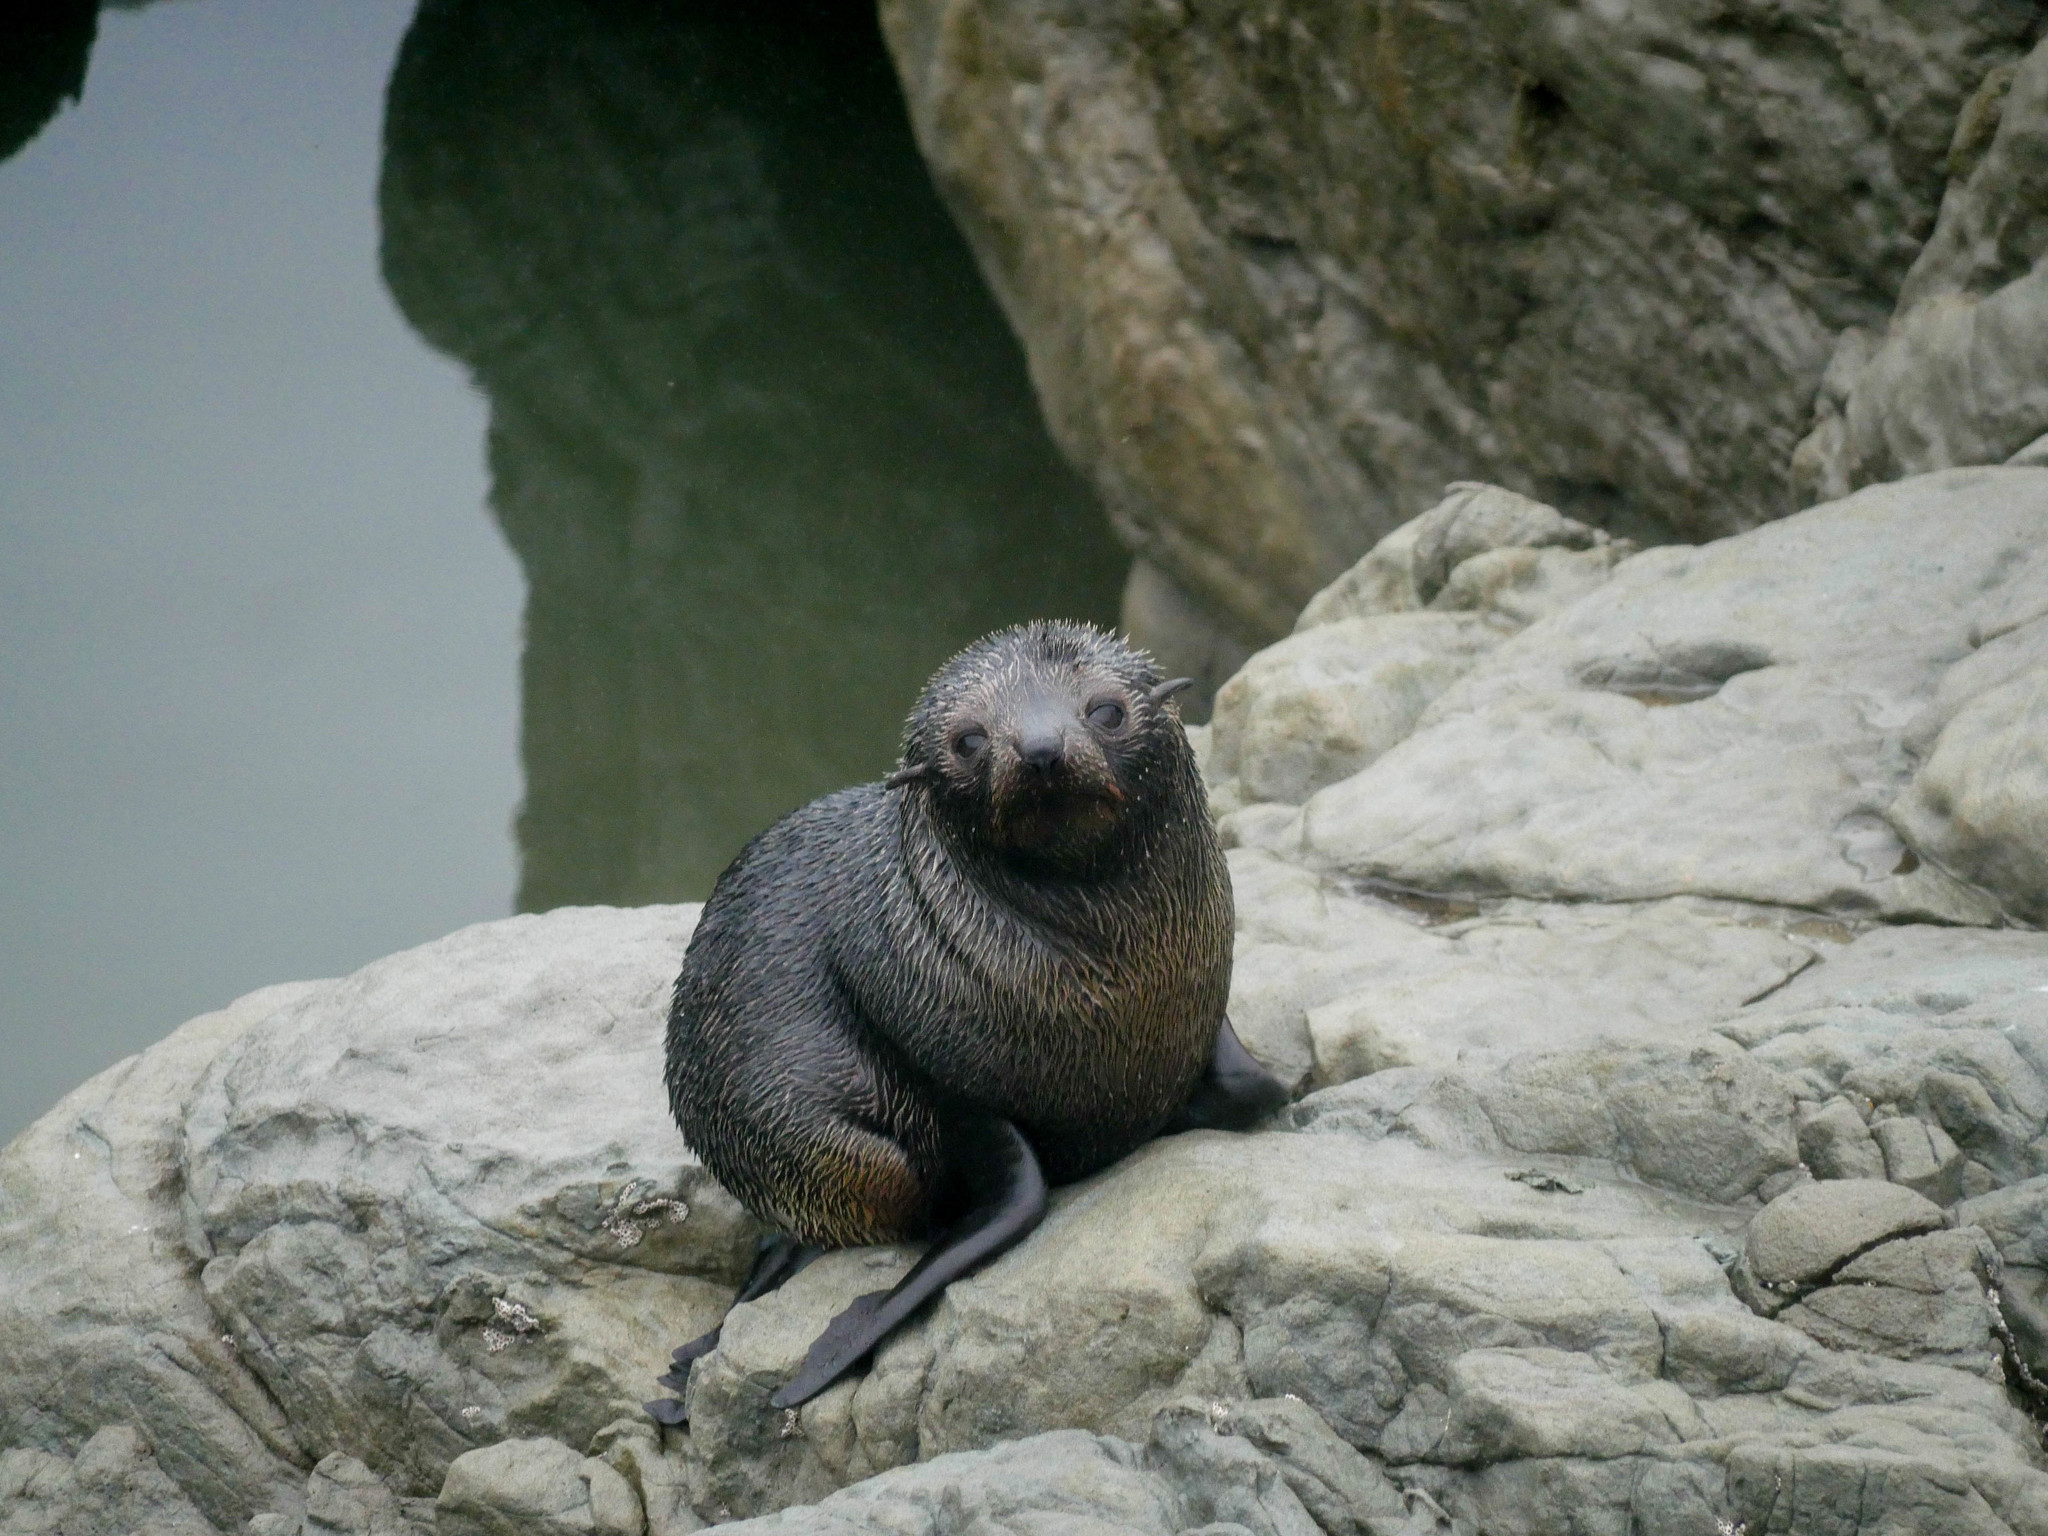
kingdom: Animalia
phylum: Chordata
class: Mammalia
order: Carnivora
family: Otariidae
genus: Arctocephalus
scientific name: Arctocephalus forsteri
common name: New zealand fur seal
